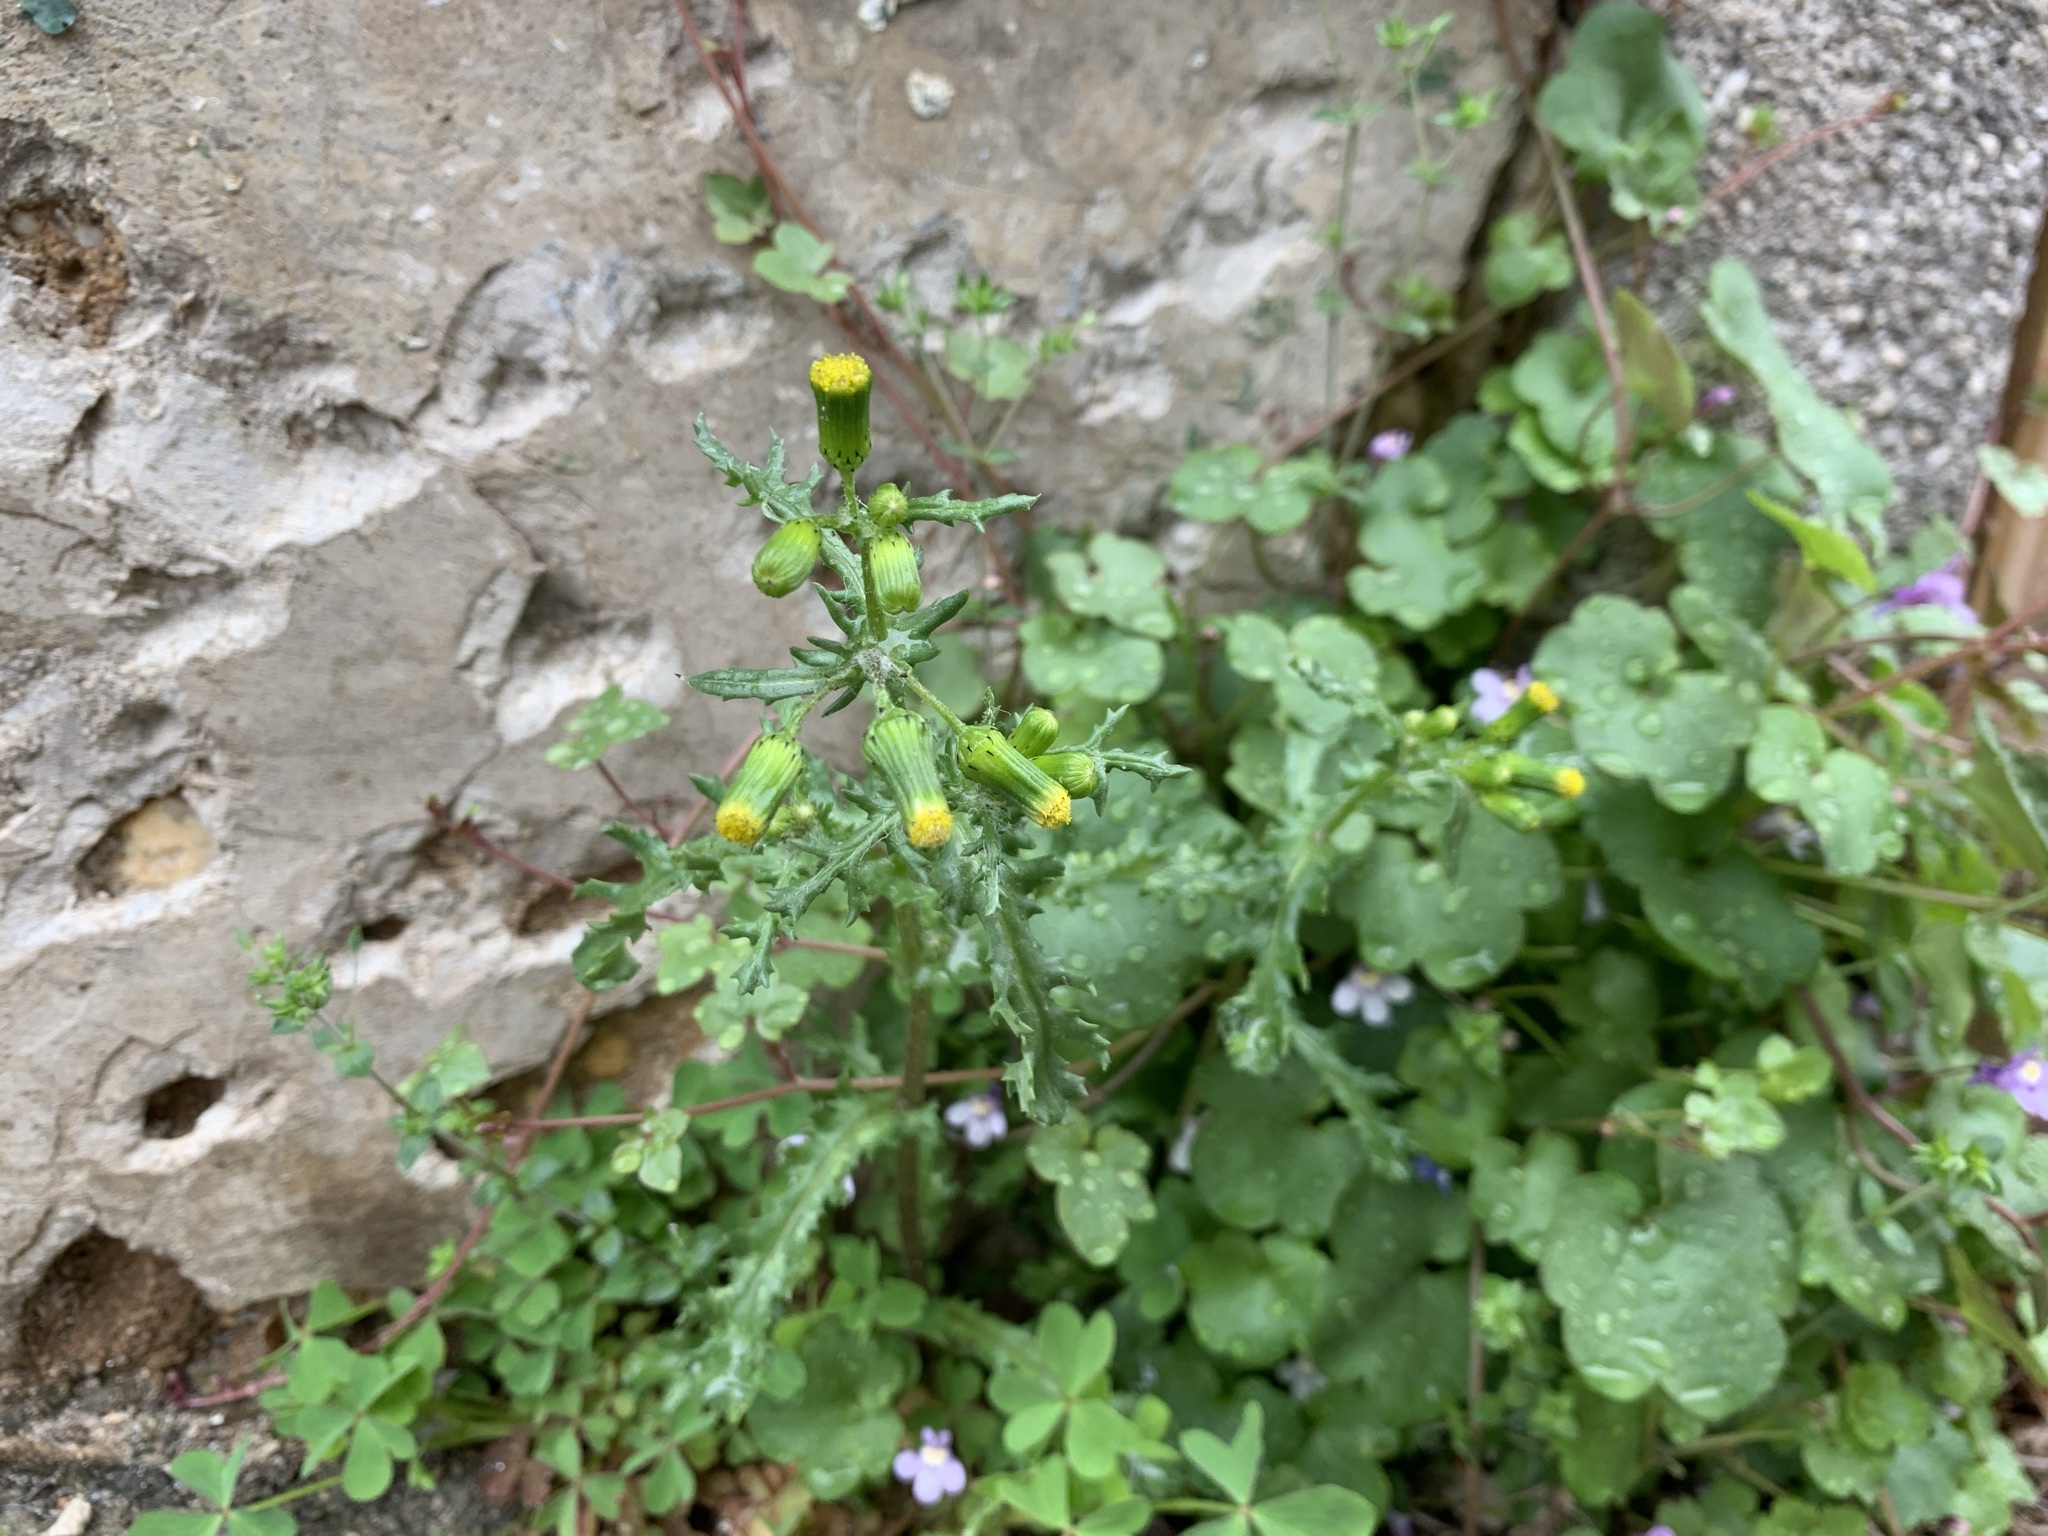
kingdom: Plantae
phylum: Tracheophyta
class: Magnoliopsida
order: Asterales
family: Asteraceae
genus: Senecio
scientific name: Senecio vulgaris
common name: Old-man-in-the-spring
